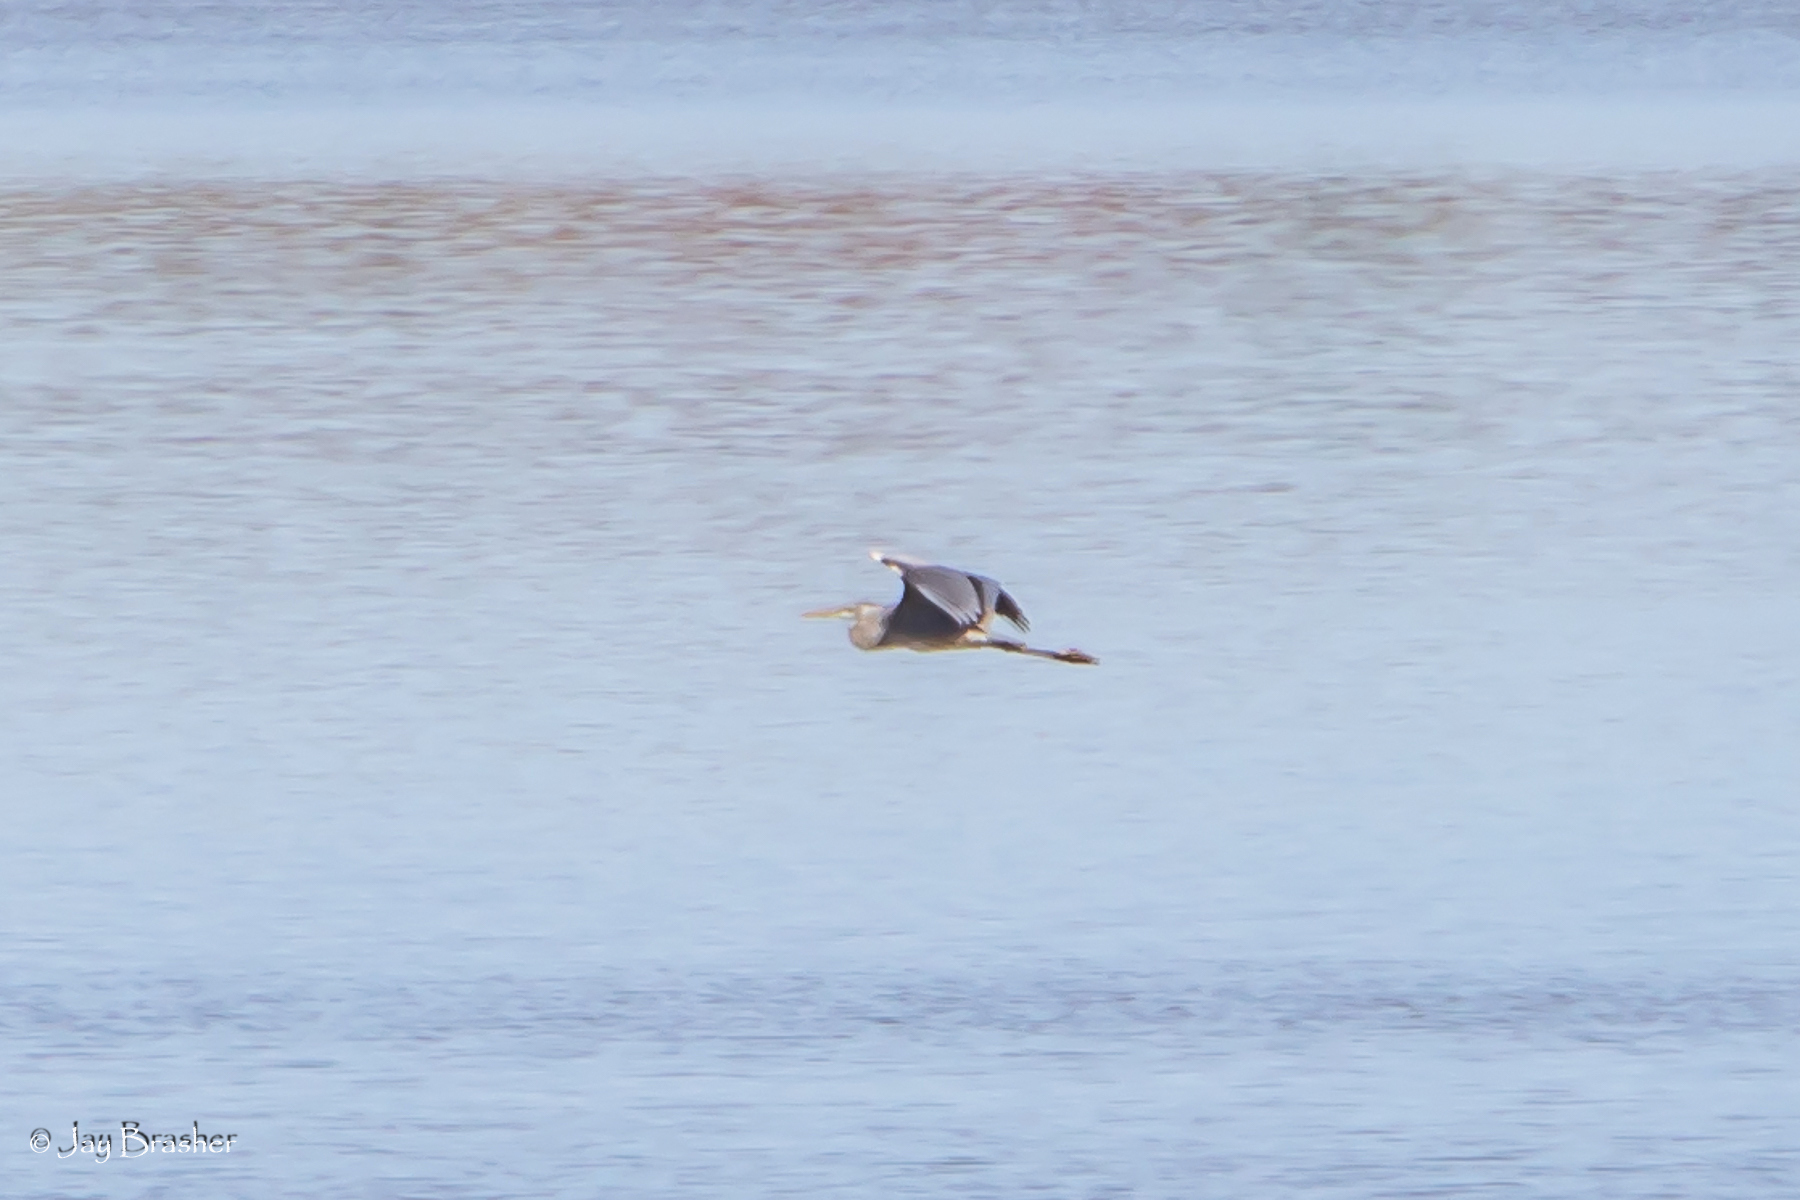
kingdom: Animalia
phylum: Chordata
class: Aves
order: Pelecaniformes
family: Ardeidae
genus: Ardea
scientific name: Ardea herodias
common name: Great blue heron
